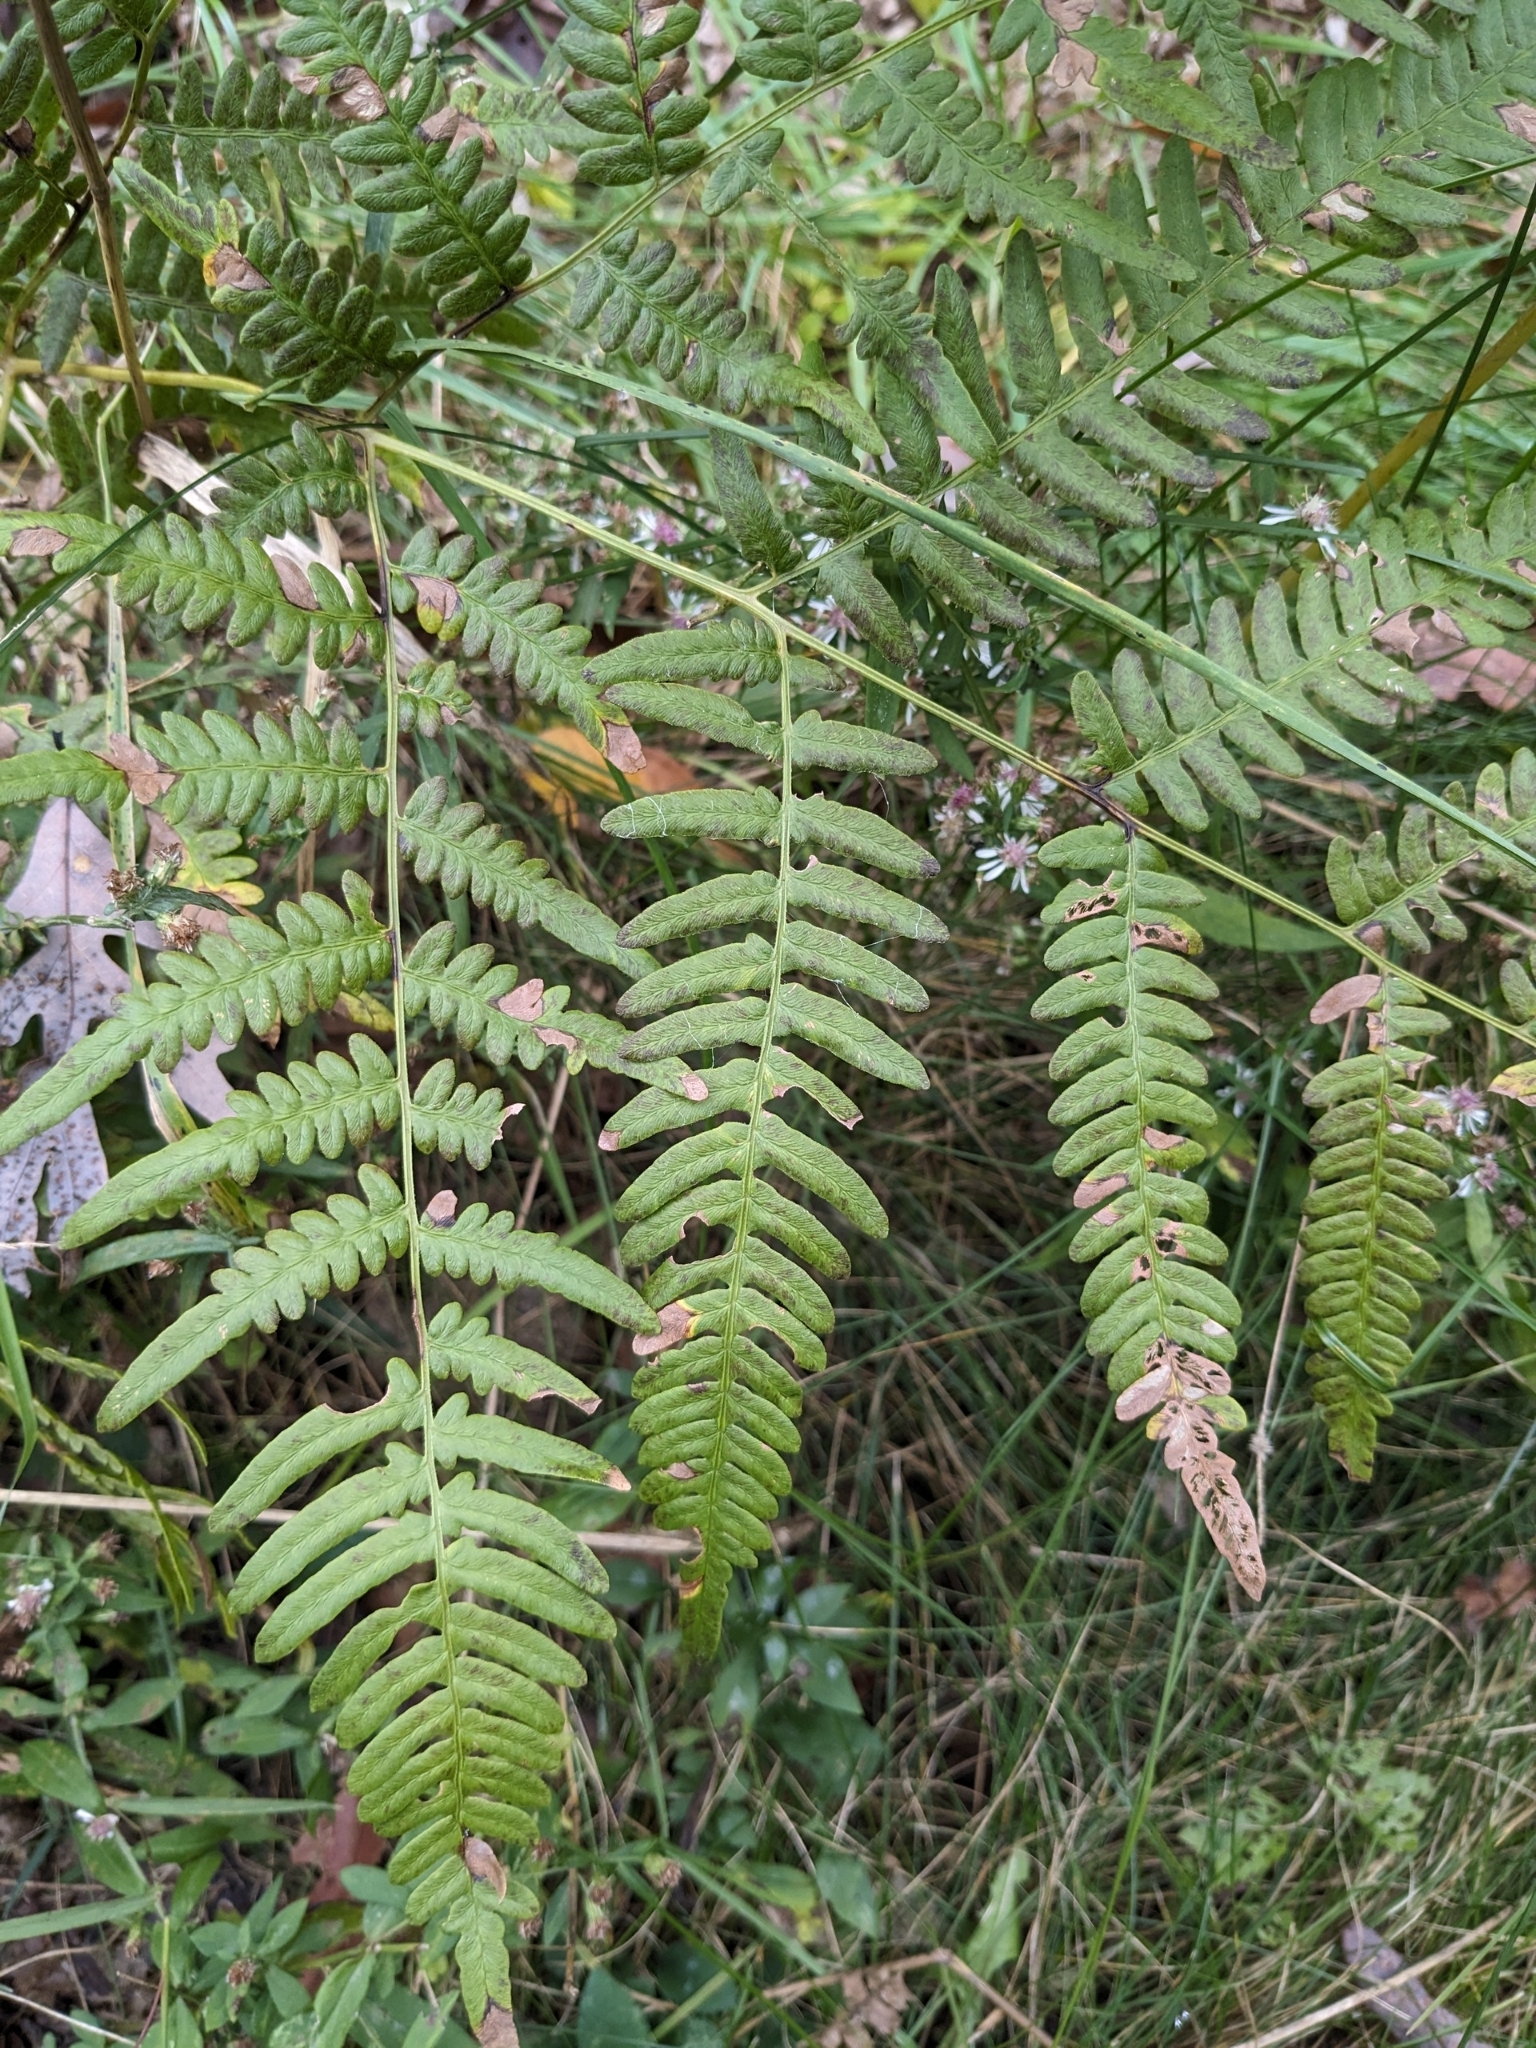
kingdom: Plantae
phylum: Tracheophyta
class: Polypodiopsida
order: Polypodiales
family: Dennstaedtiaceae
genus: Pteridium
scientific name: Pteridium aquilinum
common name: Bracken
